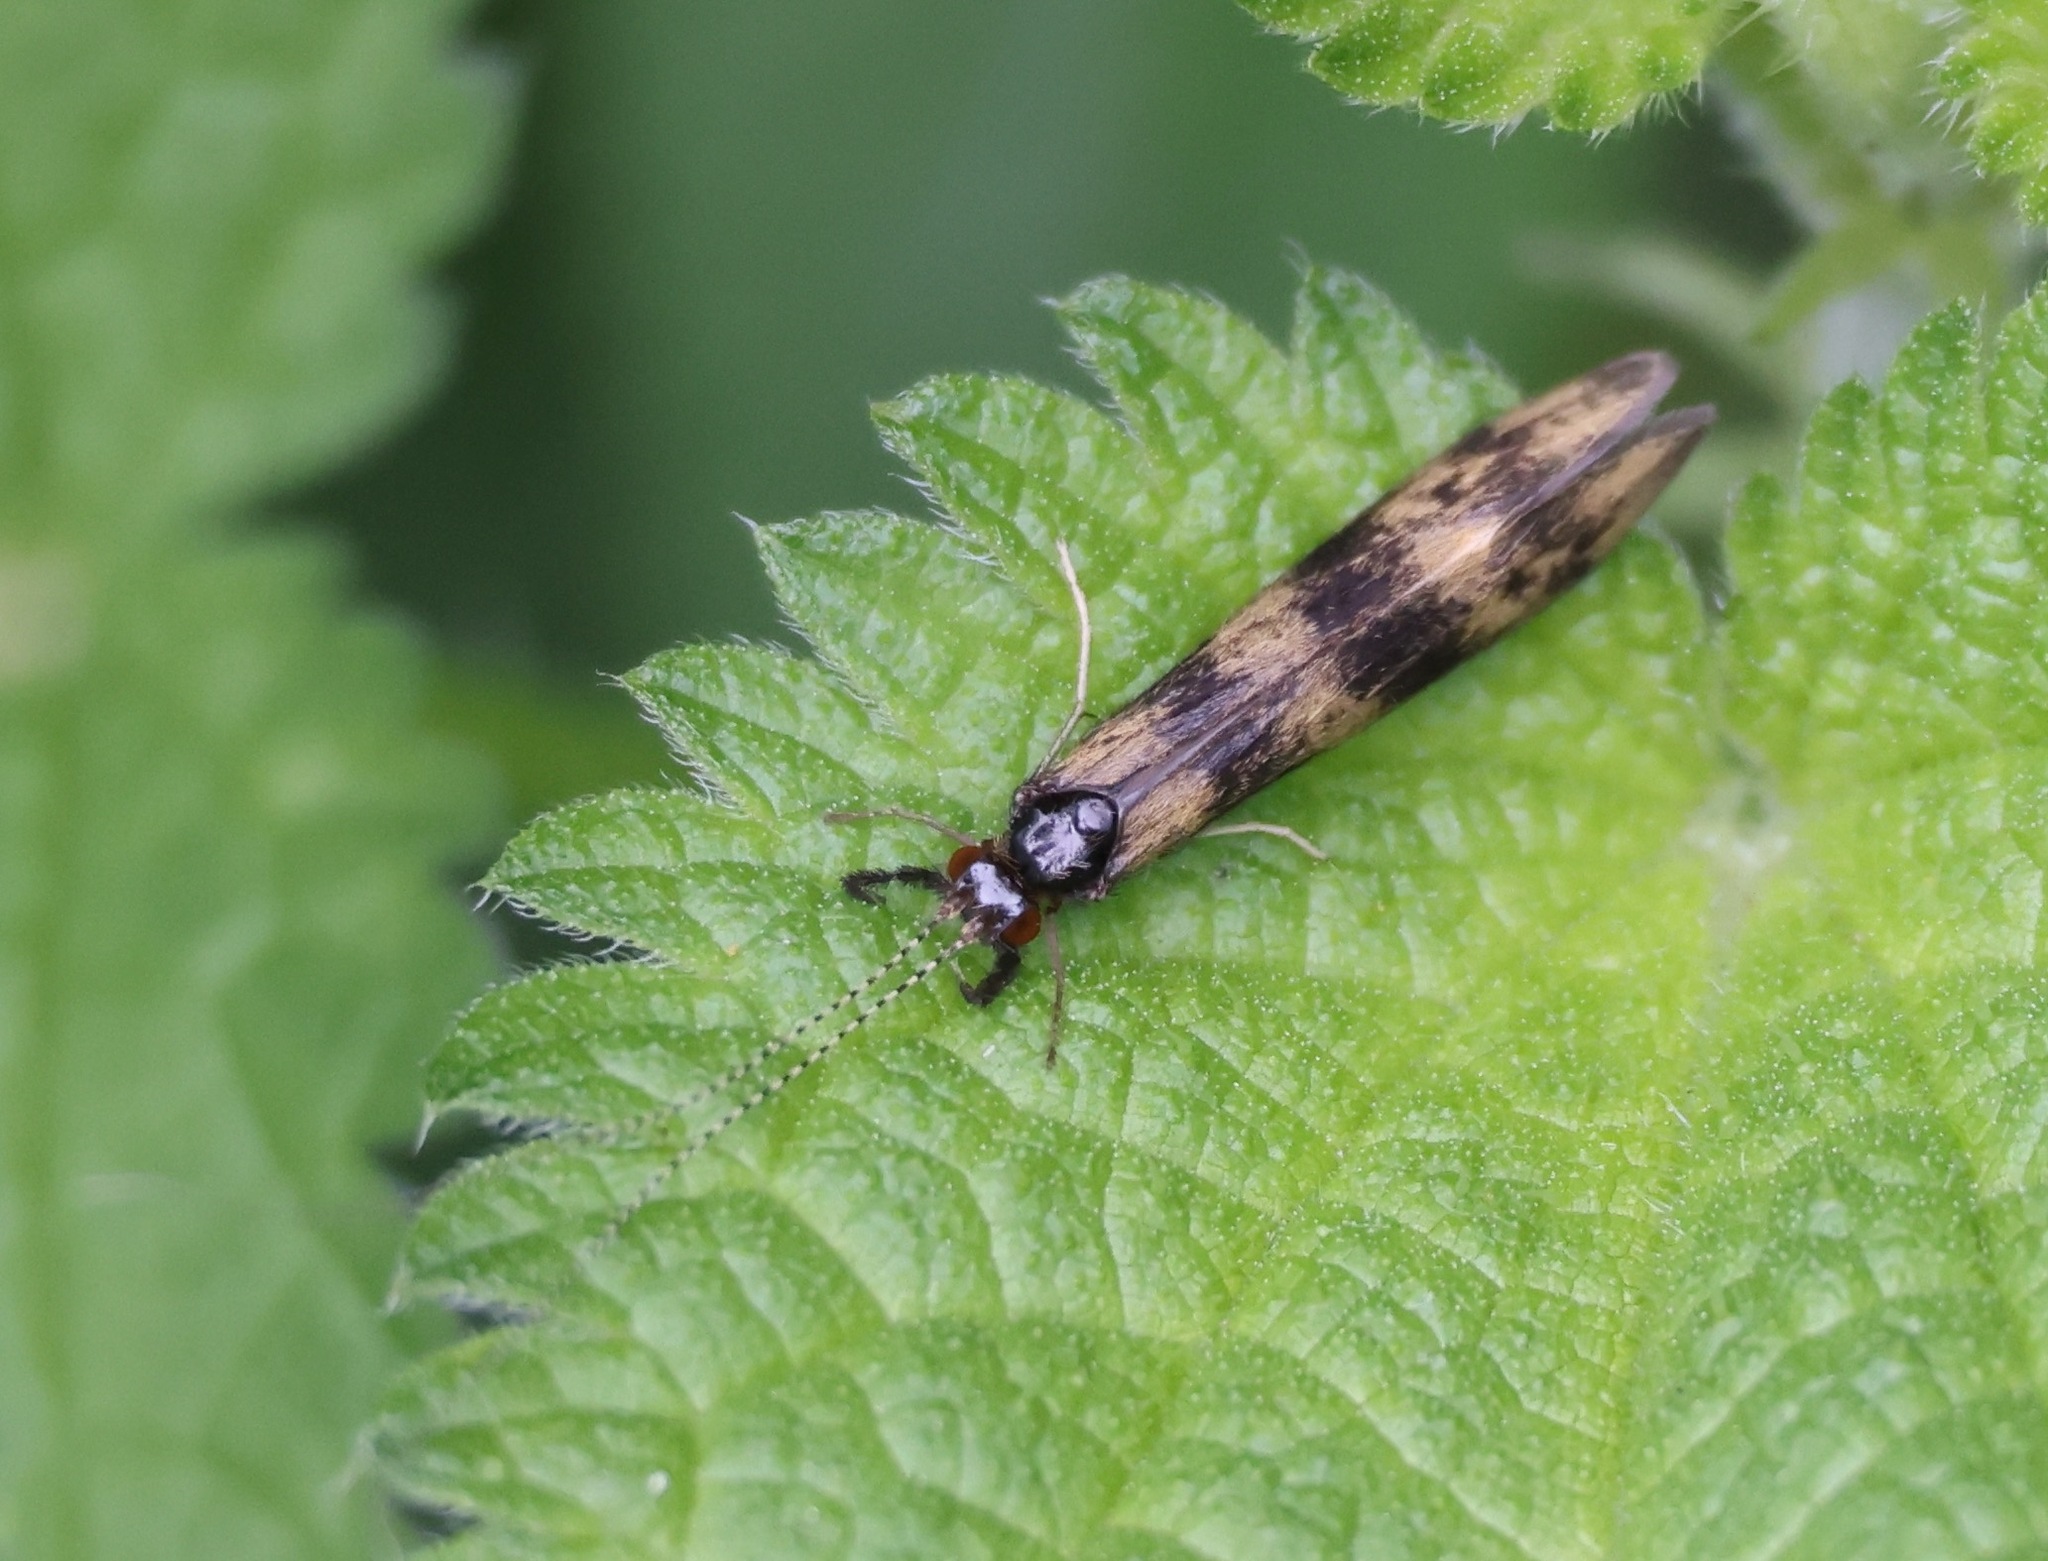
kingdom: Animalia
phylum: Arthropoda
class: Insecta
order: Trichoptera
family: Leptoceridae
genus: Mystacides
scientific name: Mystacides longicornis
